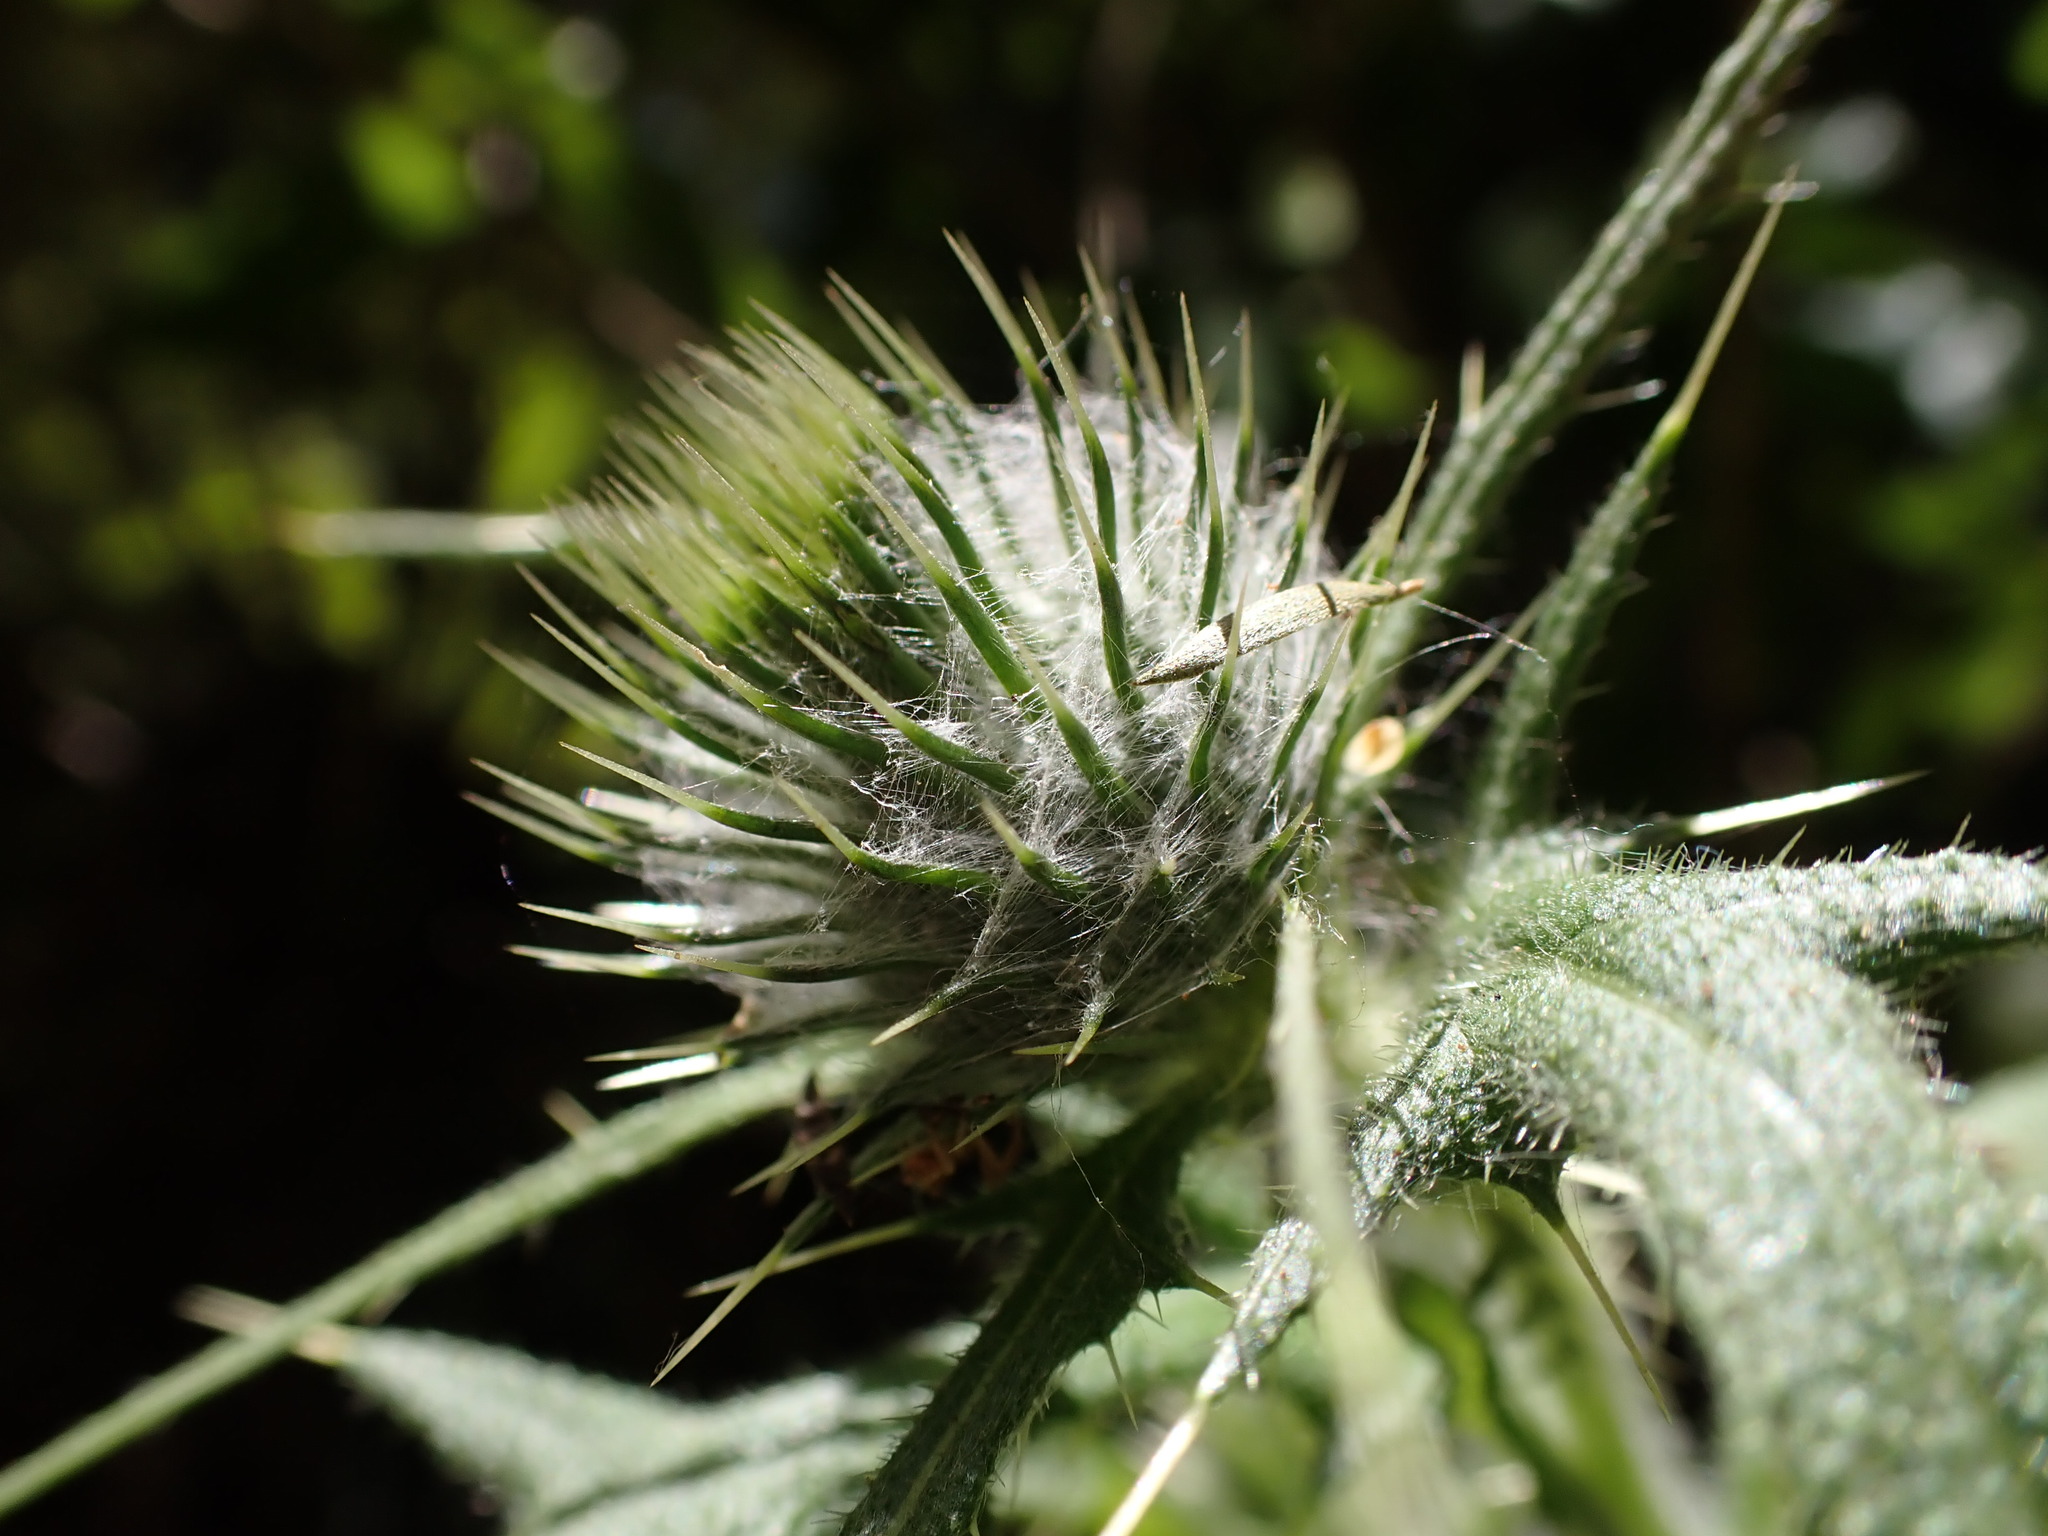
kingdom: Plantae
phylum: Tracheophyta
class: Magnoliopsida
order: Asterales
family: Asteraceae
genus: Cirsium
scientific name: Cirsium vulgare
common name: Bull thistle
